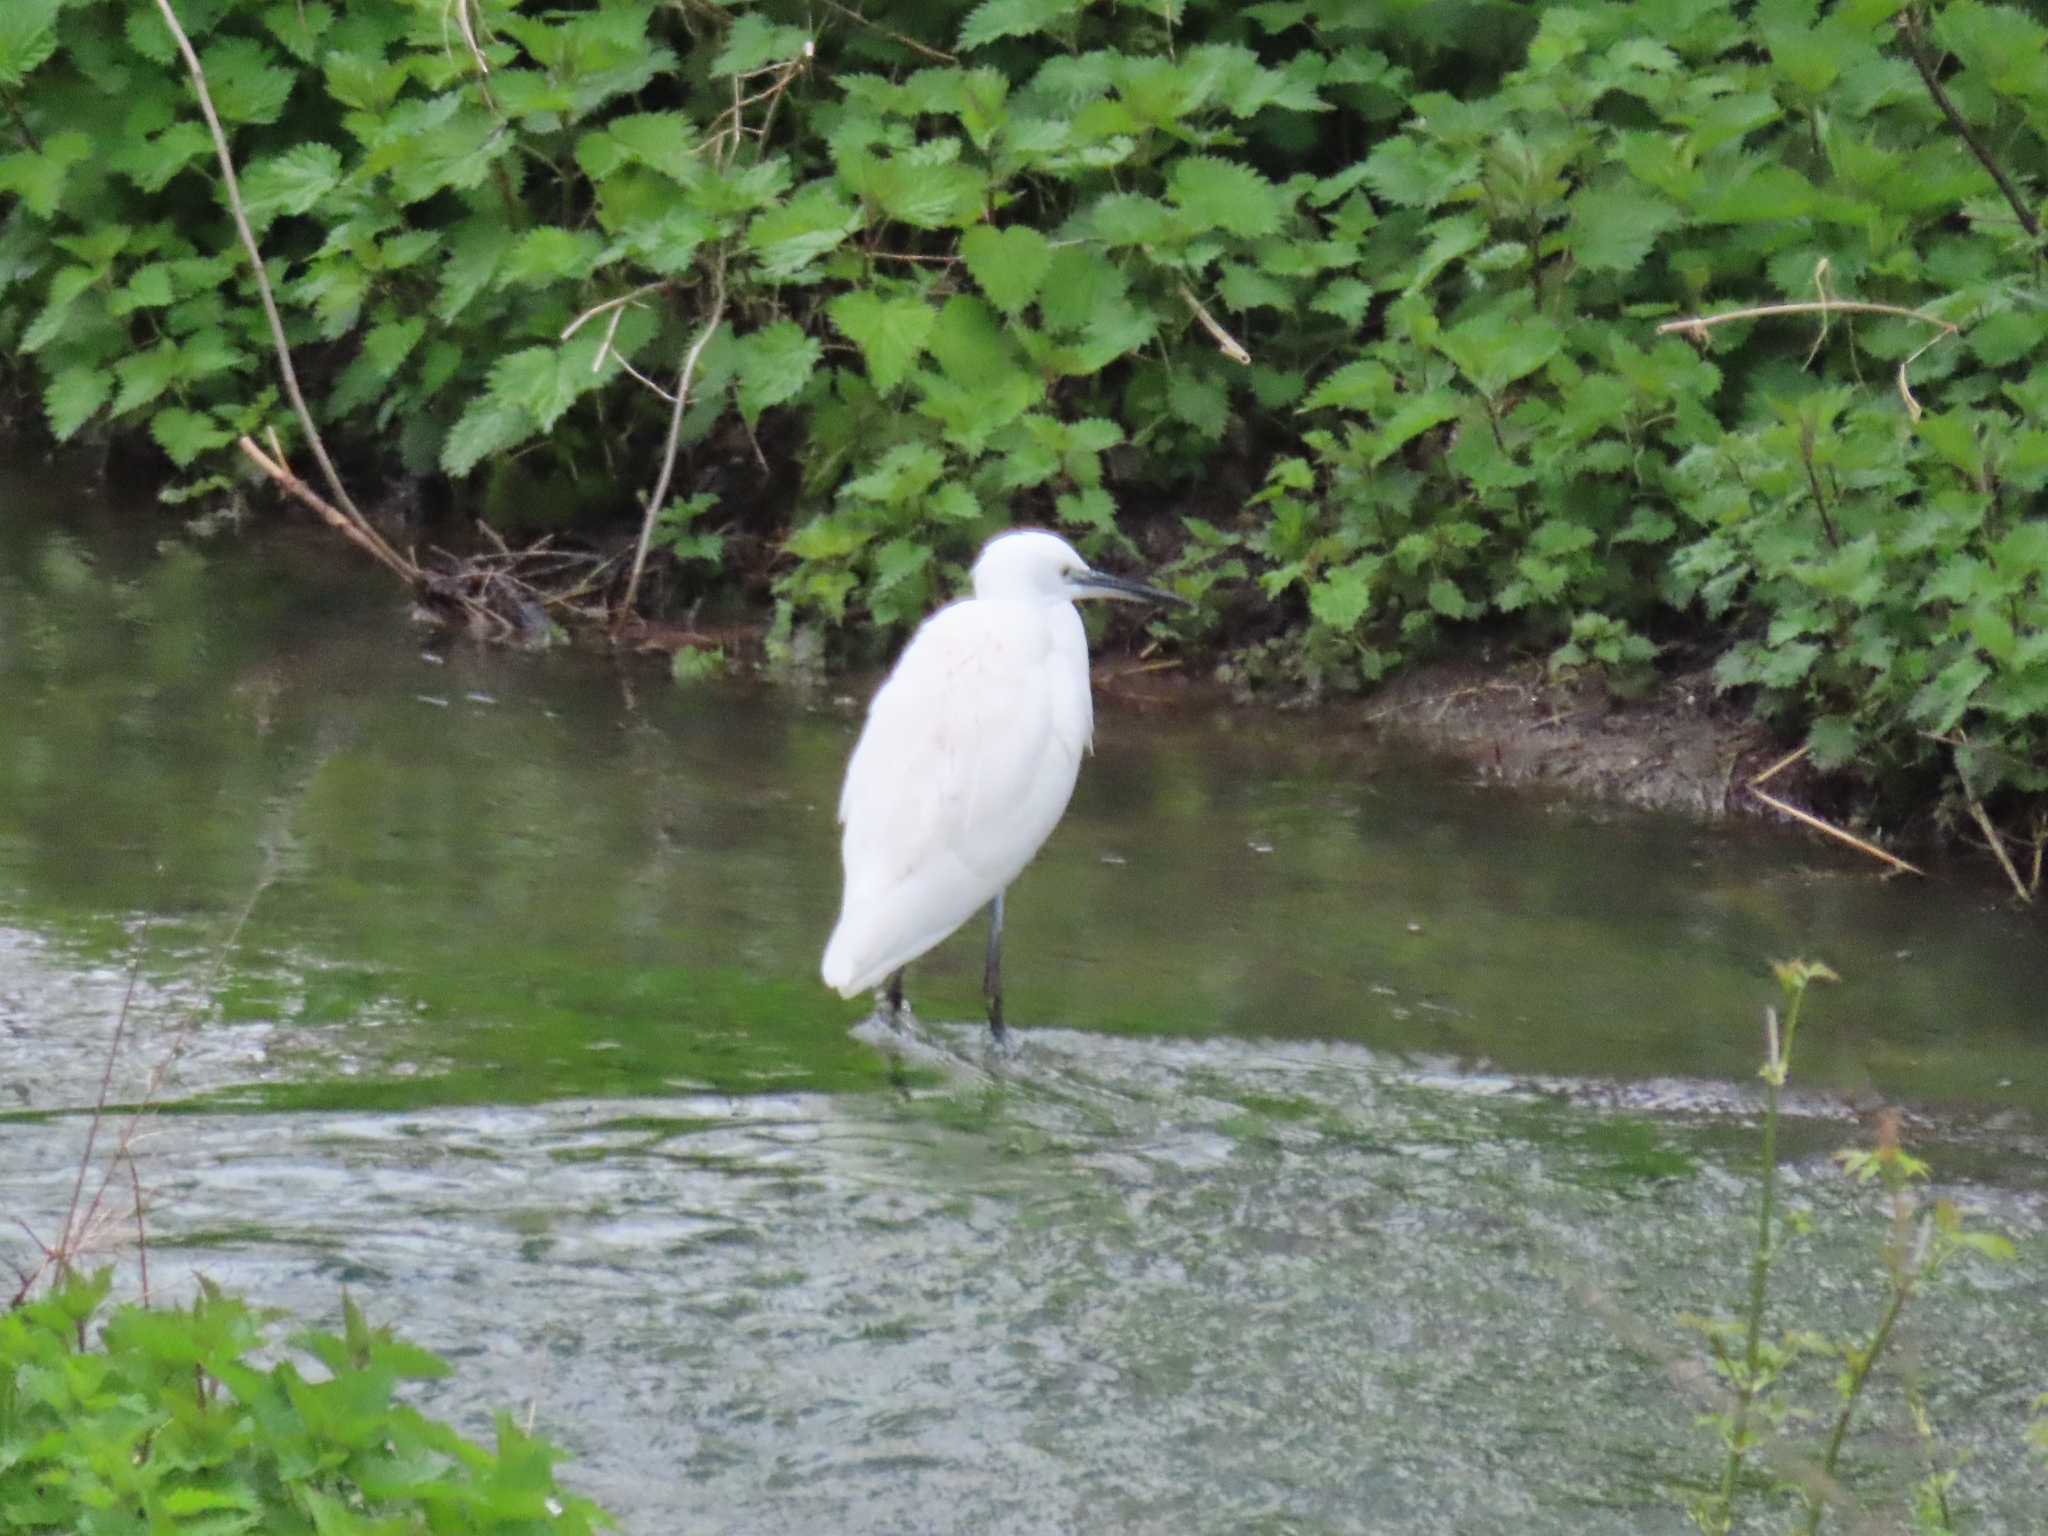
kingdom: Animalia
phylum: Chordata
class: Aves
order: Pelecaniformes
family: Ardeidae
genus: Egretta
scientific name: Egretta garzetta
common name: Little egret
